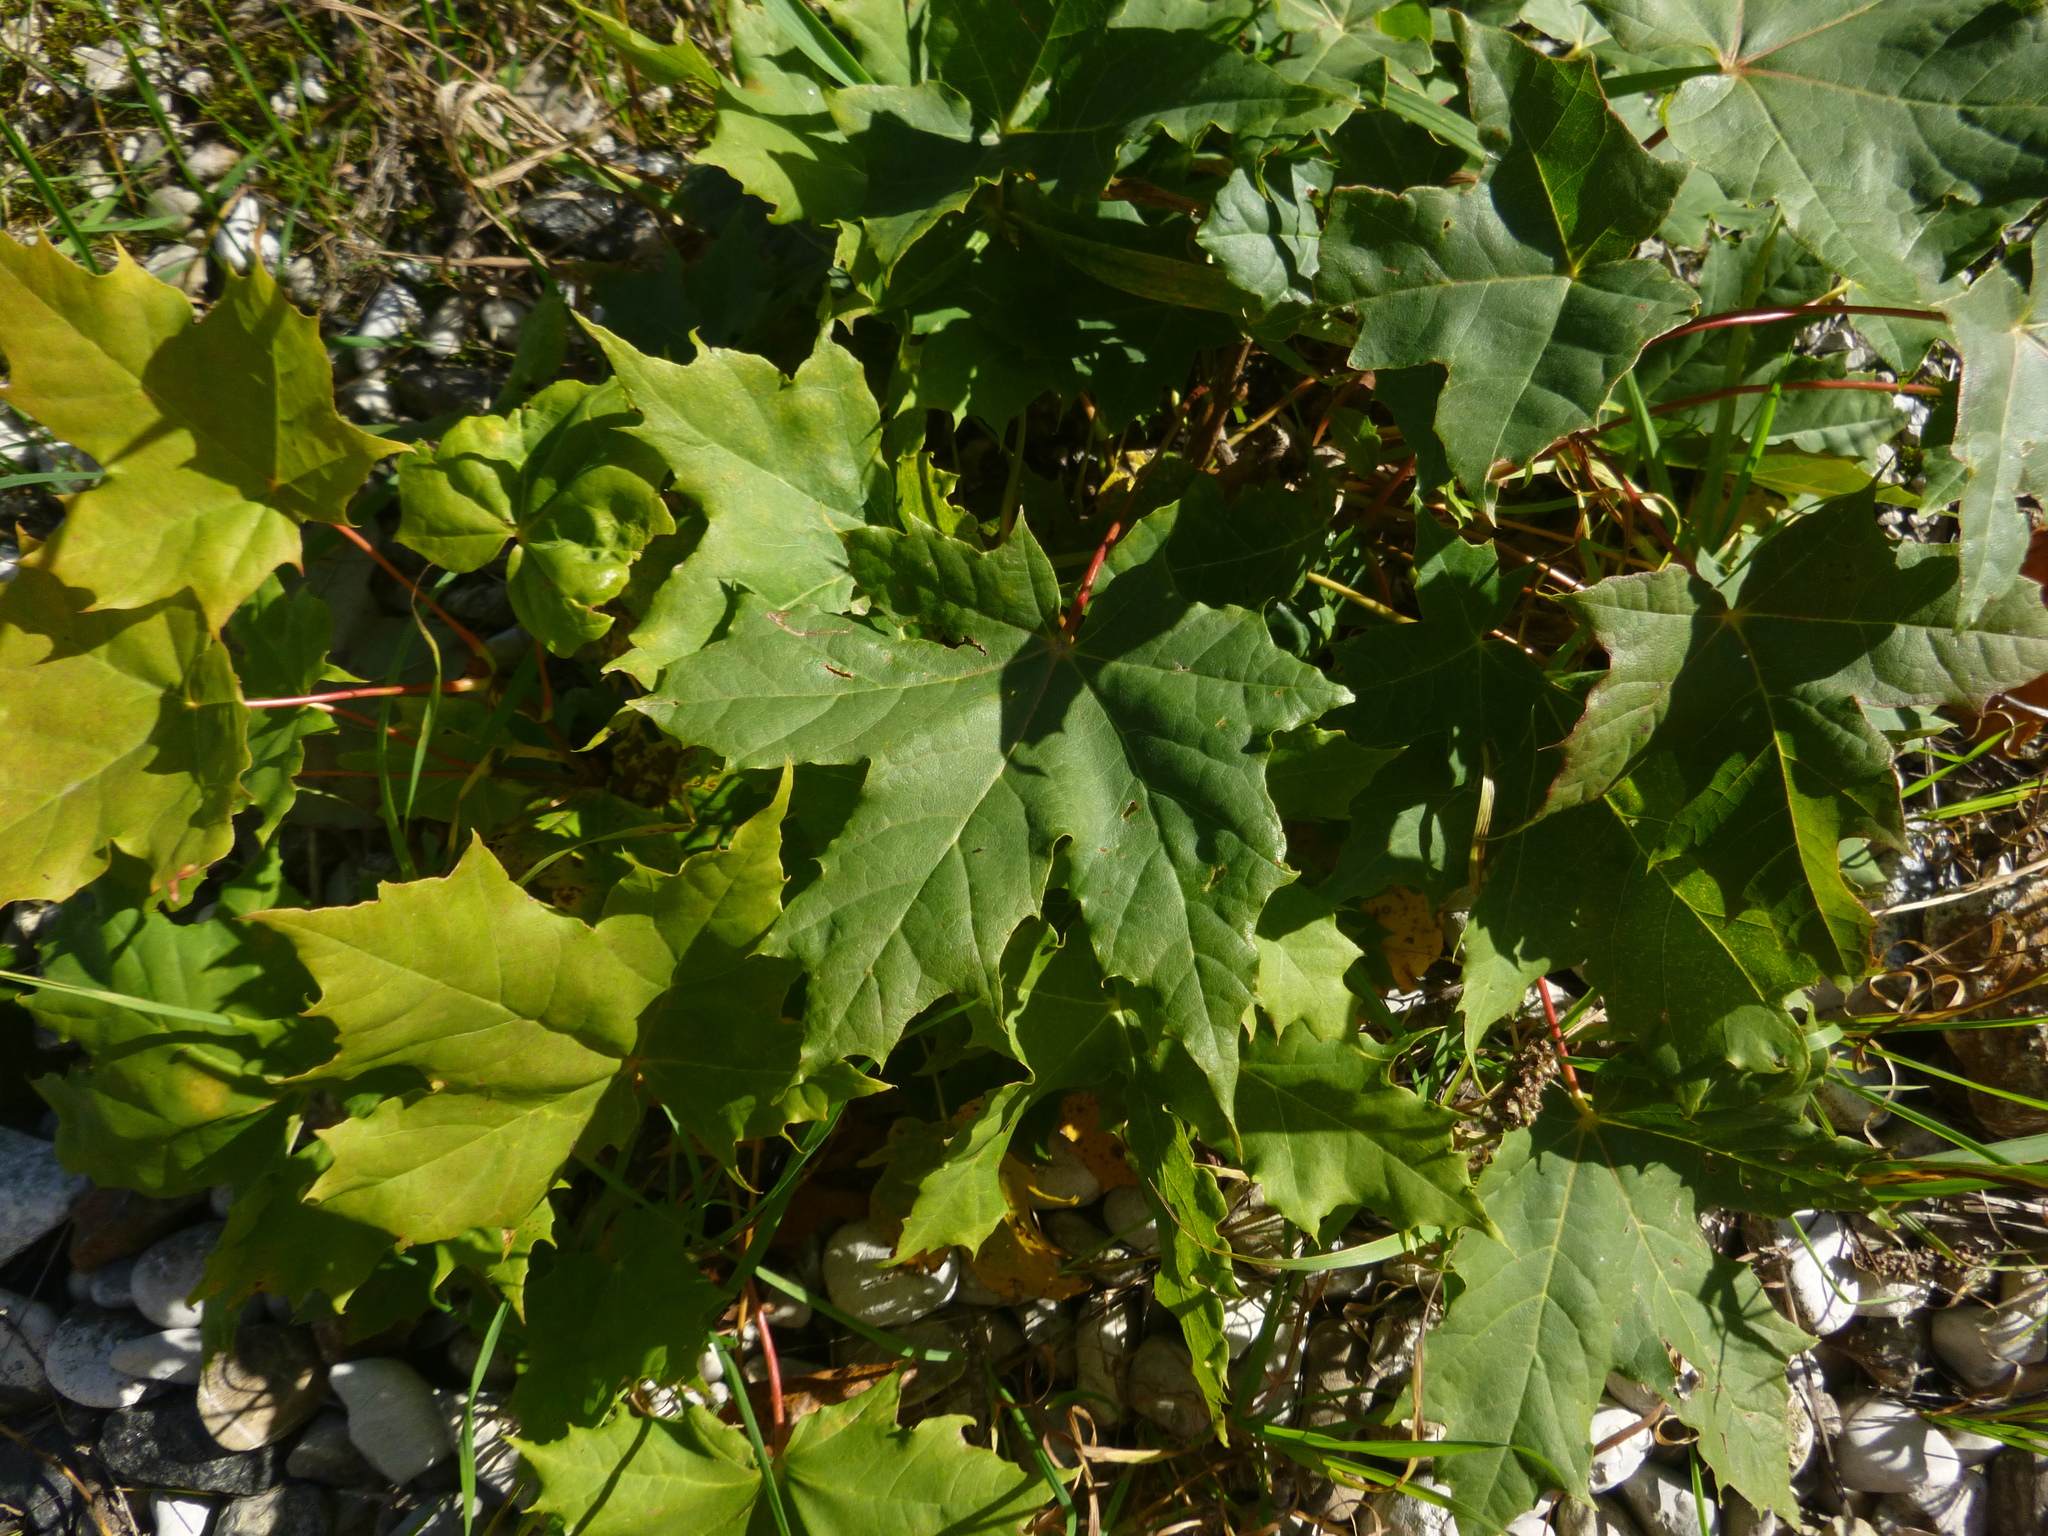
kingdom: Plantae
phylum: Tracheophyta
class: Magnoliopsida
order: Sapindales
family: Sapindaceae
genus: Acer
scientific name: Acer platanoides
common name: Norway maple
